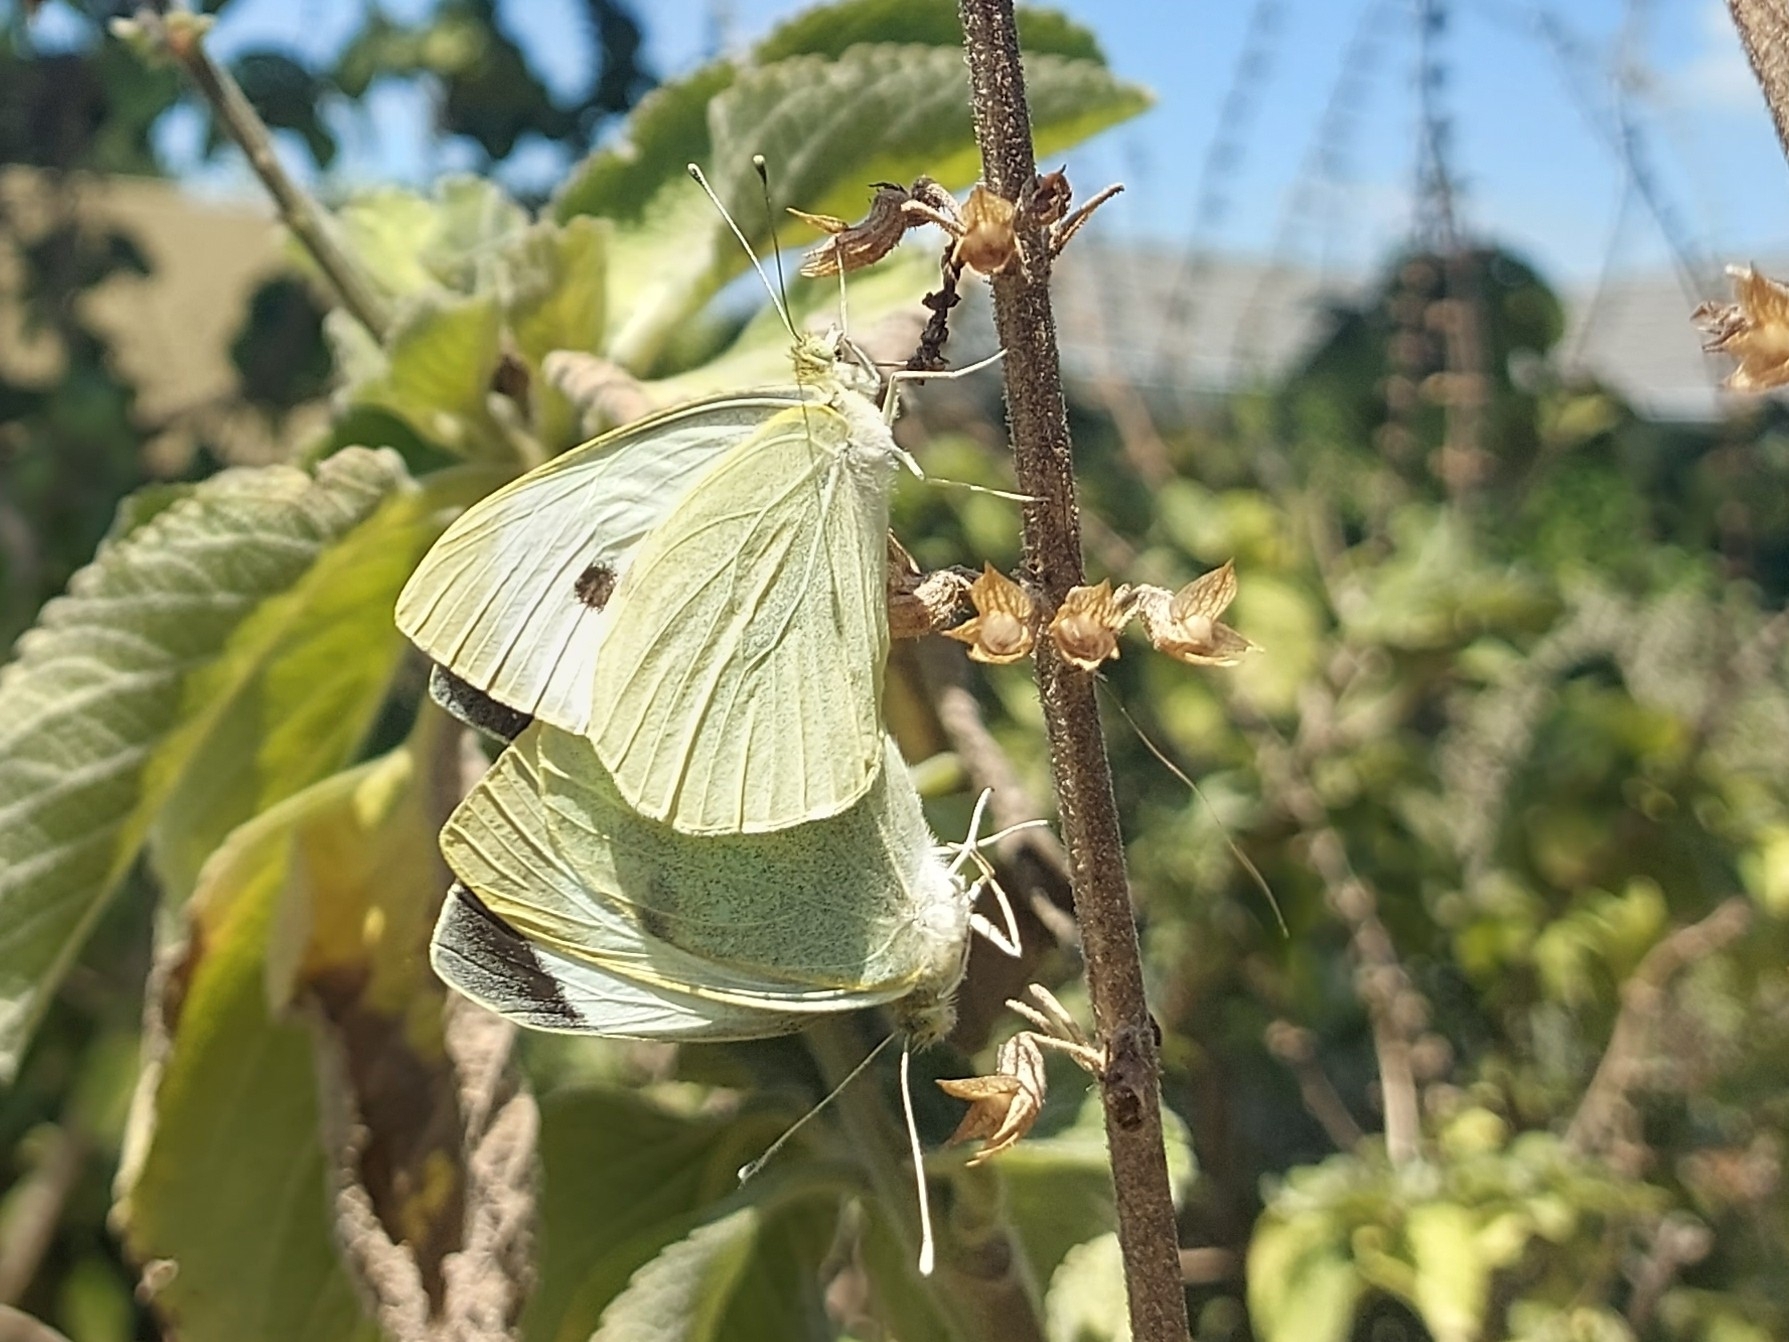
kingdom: Animalia
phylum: Arthropoda
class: Insecta
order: Lepidoptera
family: Pieridae
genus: Pieris
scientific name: Pieris brassicae
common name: Large white
